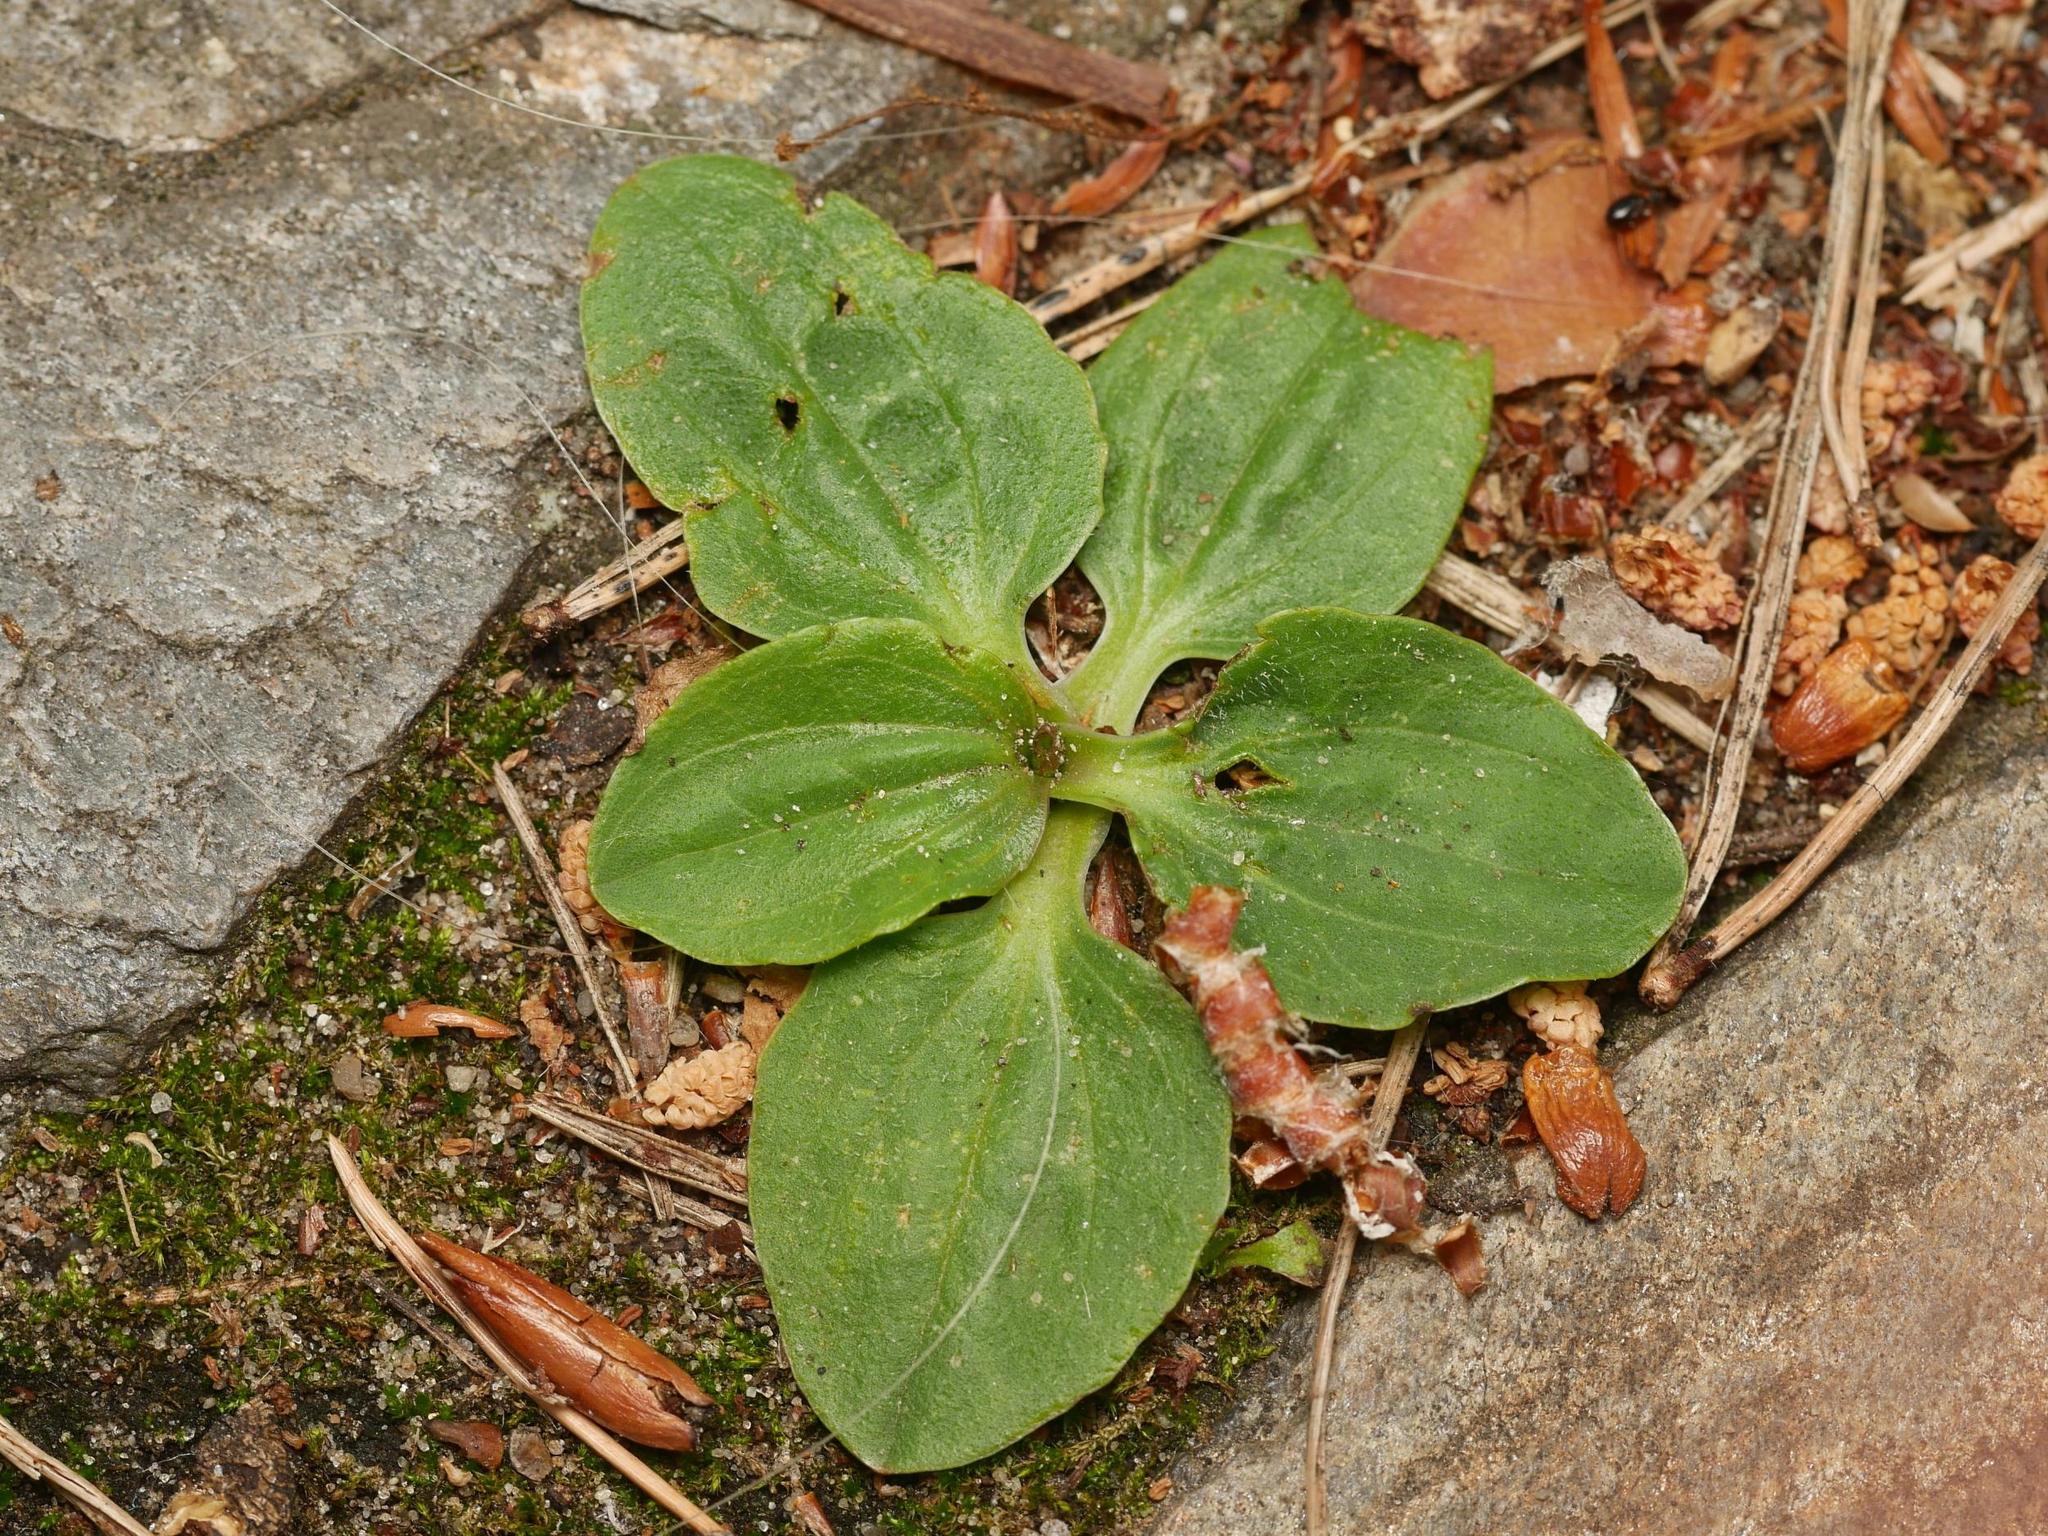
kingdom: Plantae
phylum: Tracheophyta
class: Magnoliopsida
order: Lamiales
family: Plantaginaceae
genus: Plantago
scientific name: Plantago major
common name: Common plantain
